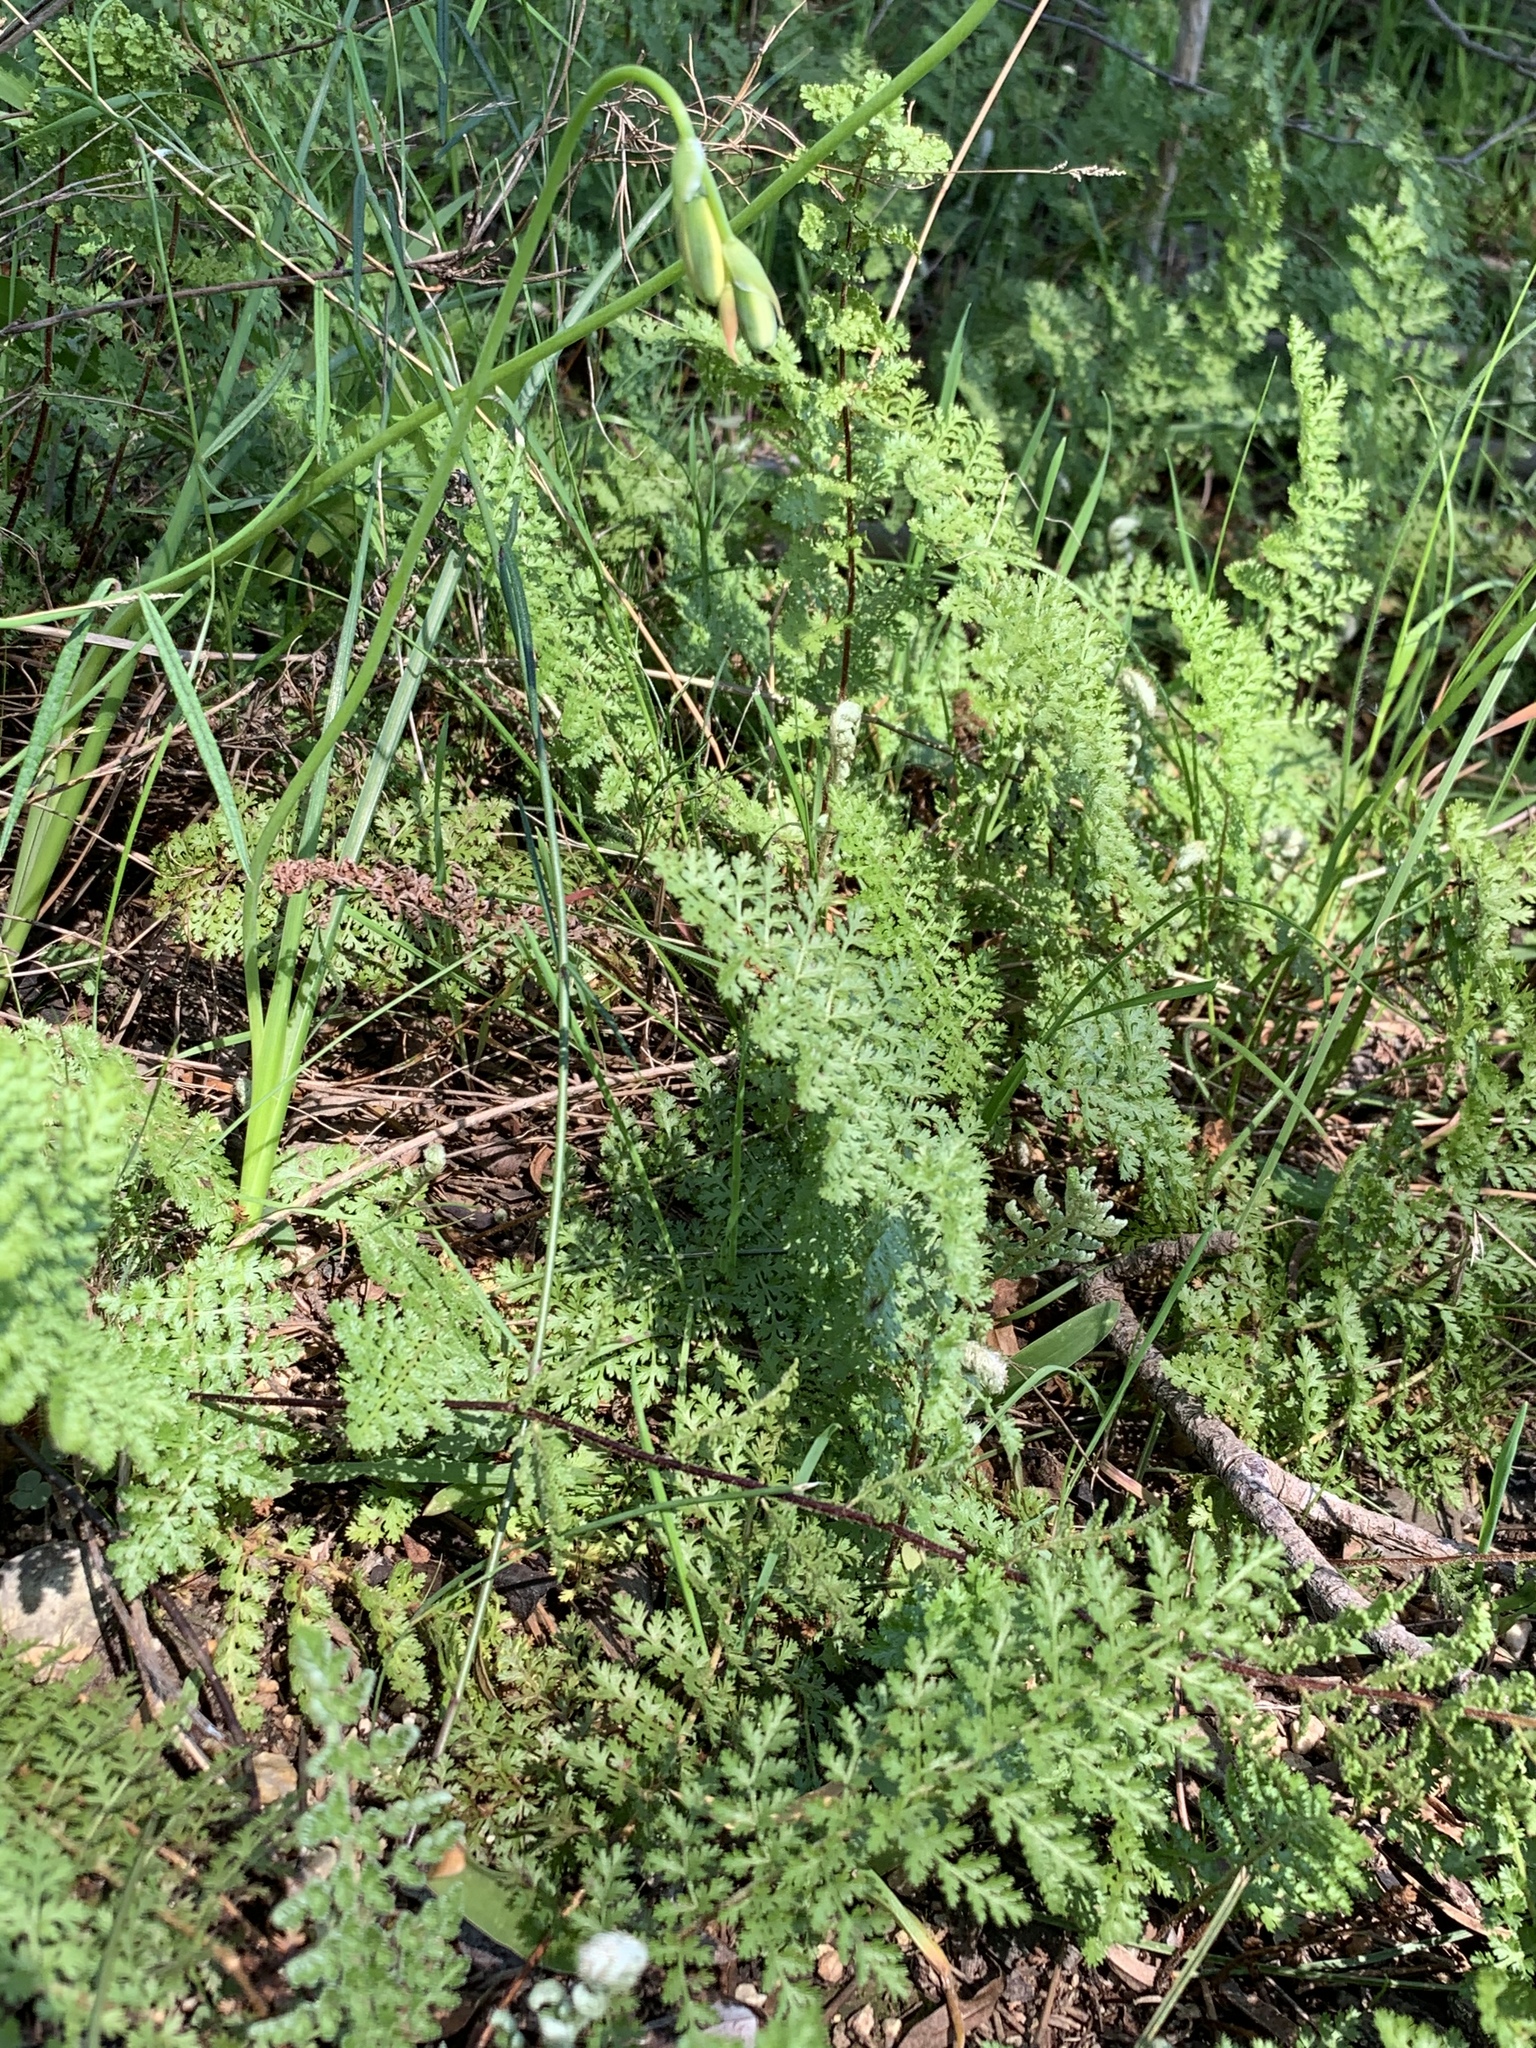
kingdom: Plantae
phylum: Tracheophyta
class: Polypodiopsida
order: Schizaeales
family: Anemiaceae
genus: Anemia
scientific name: Anemia caffrorum
